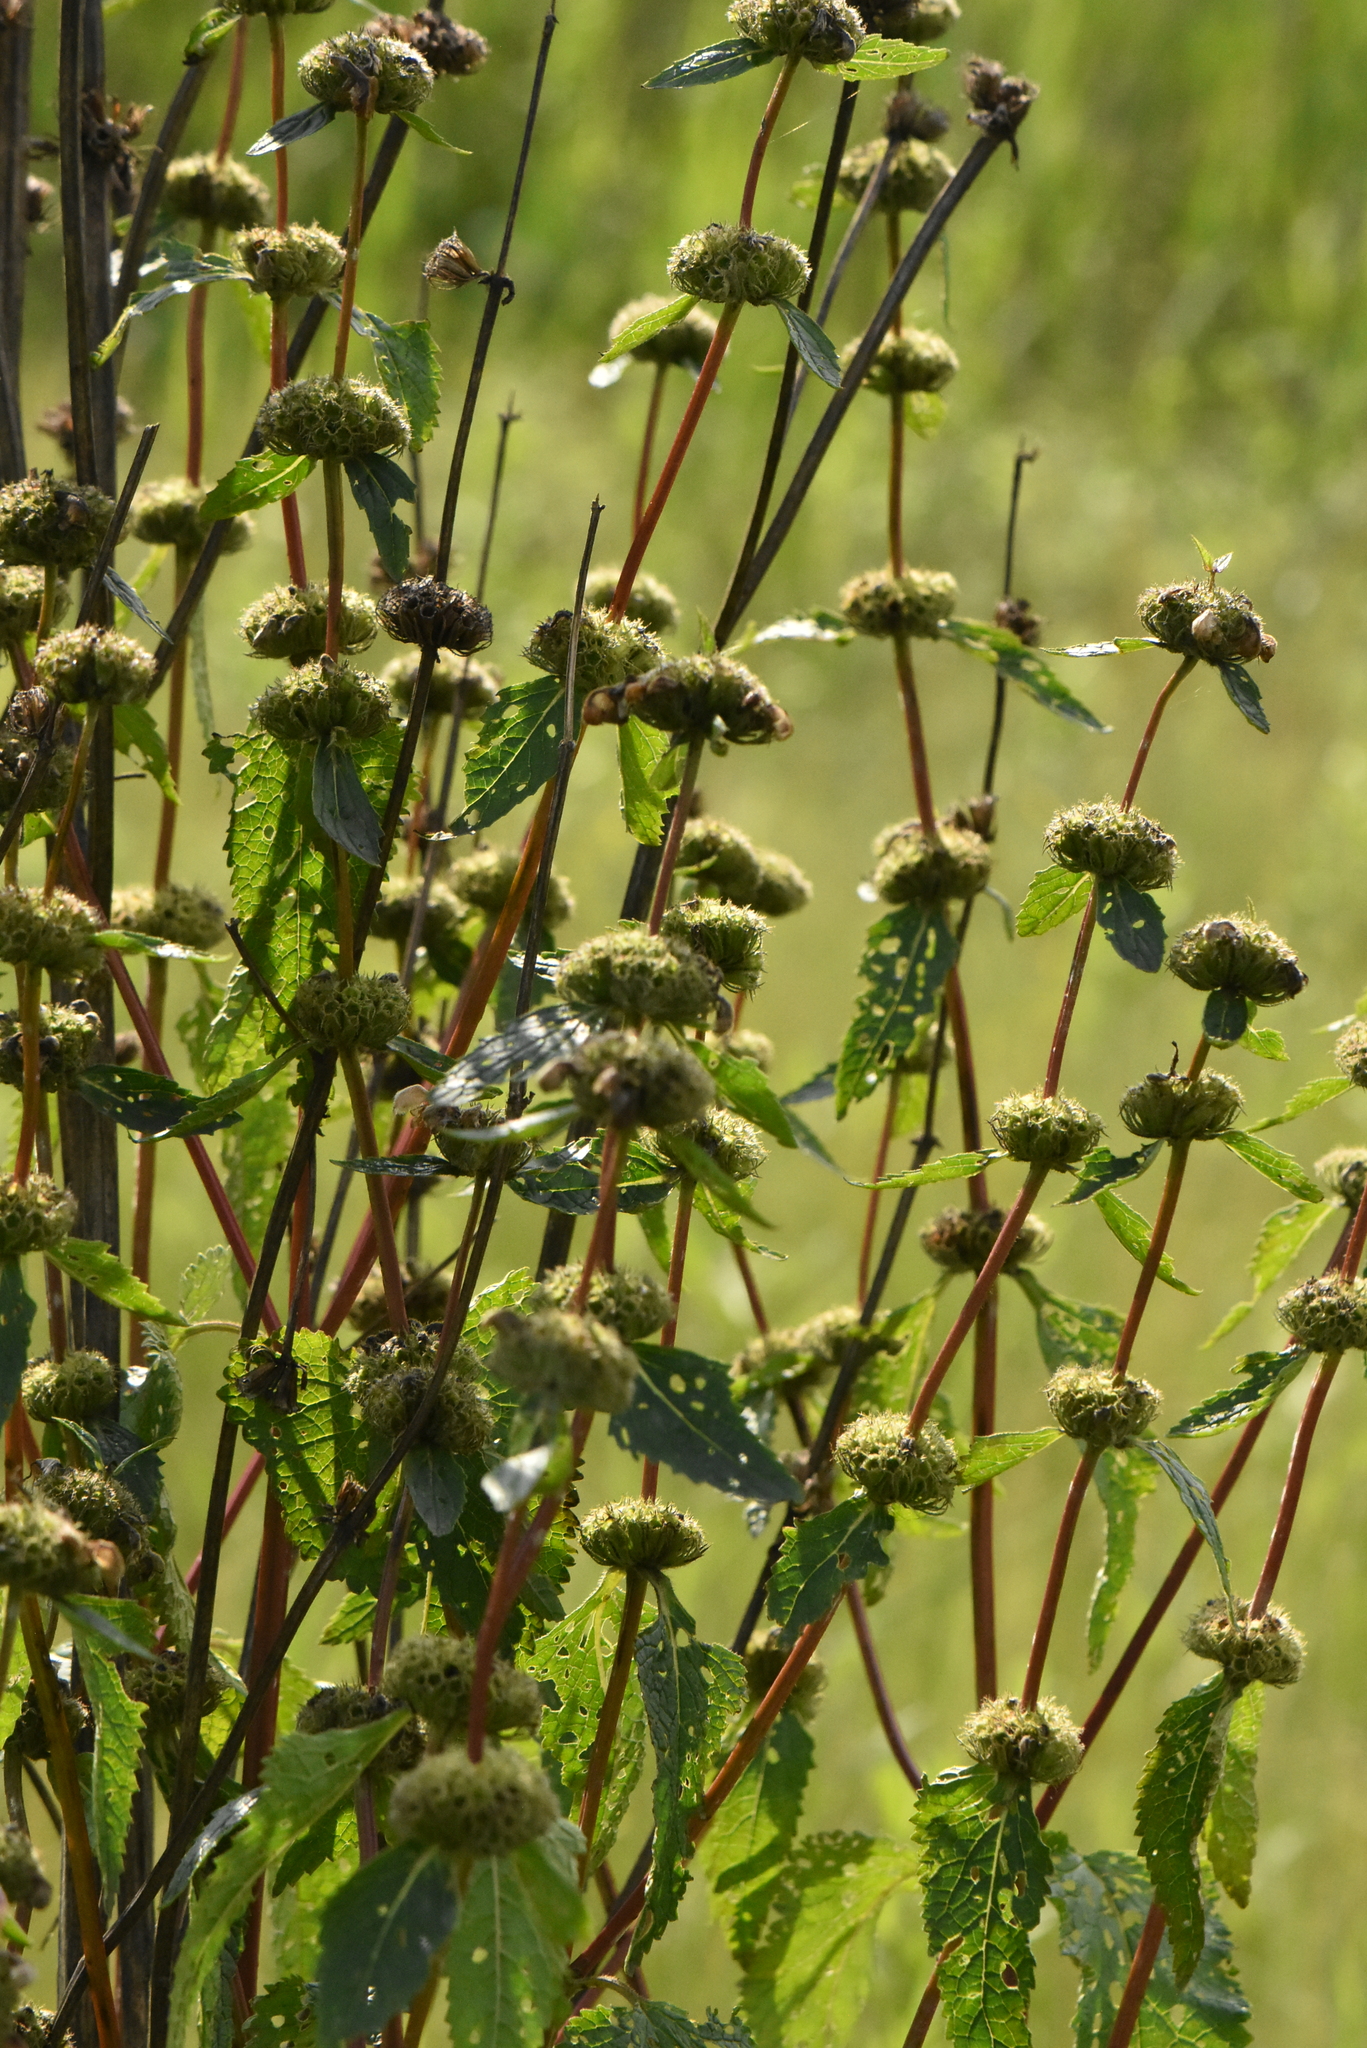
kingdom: Plantae
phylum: Tracheophyta
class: Magnoliopsida
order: Lamiales
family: Lamiaceae
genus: Phlomoides
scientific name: Phlomoides tuberosa
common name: Tuberous jerusalem sage
